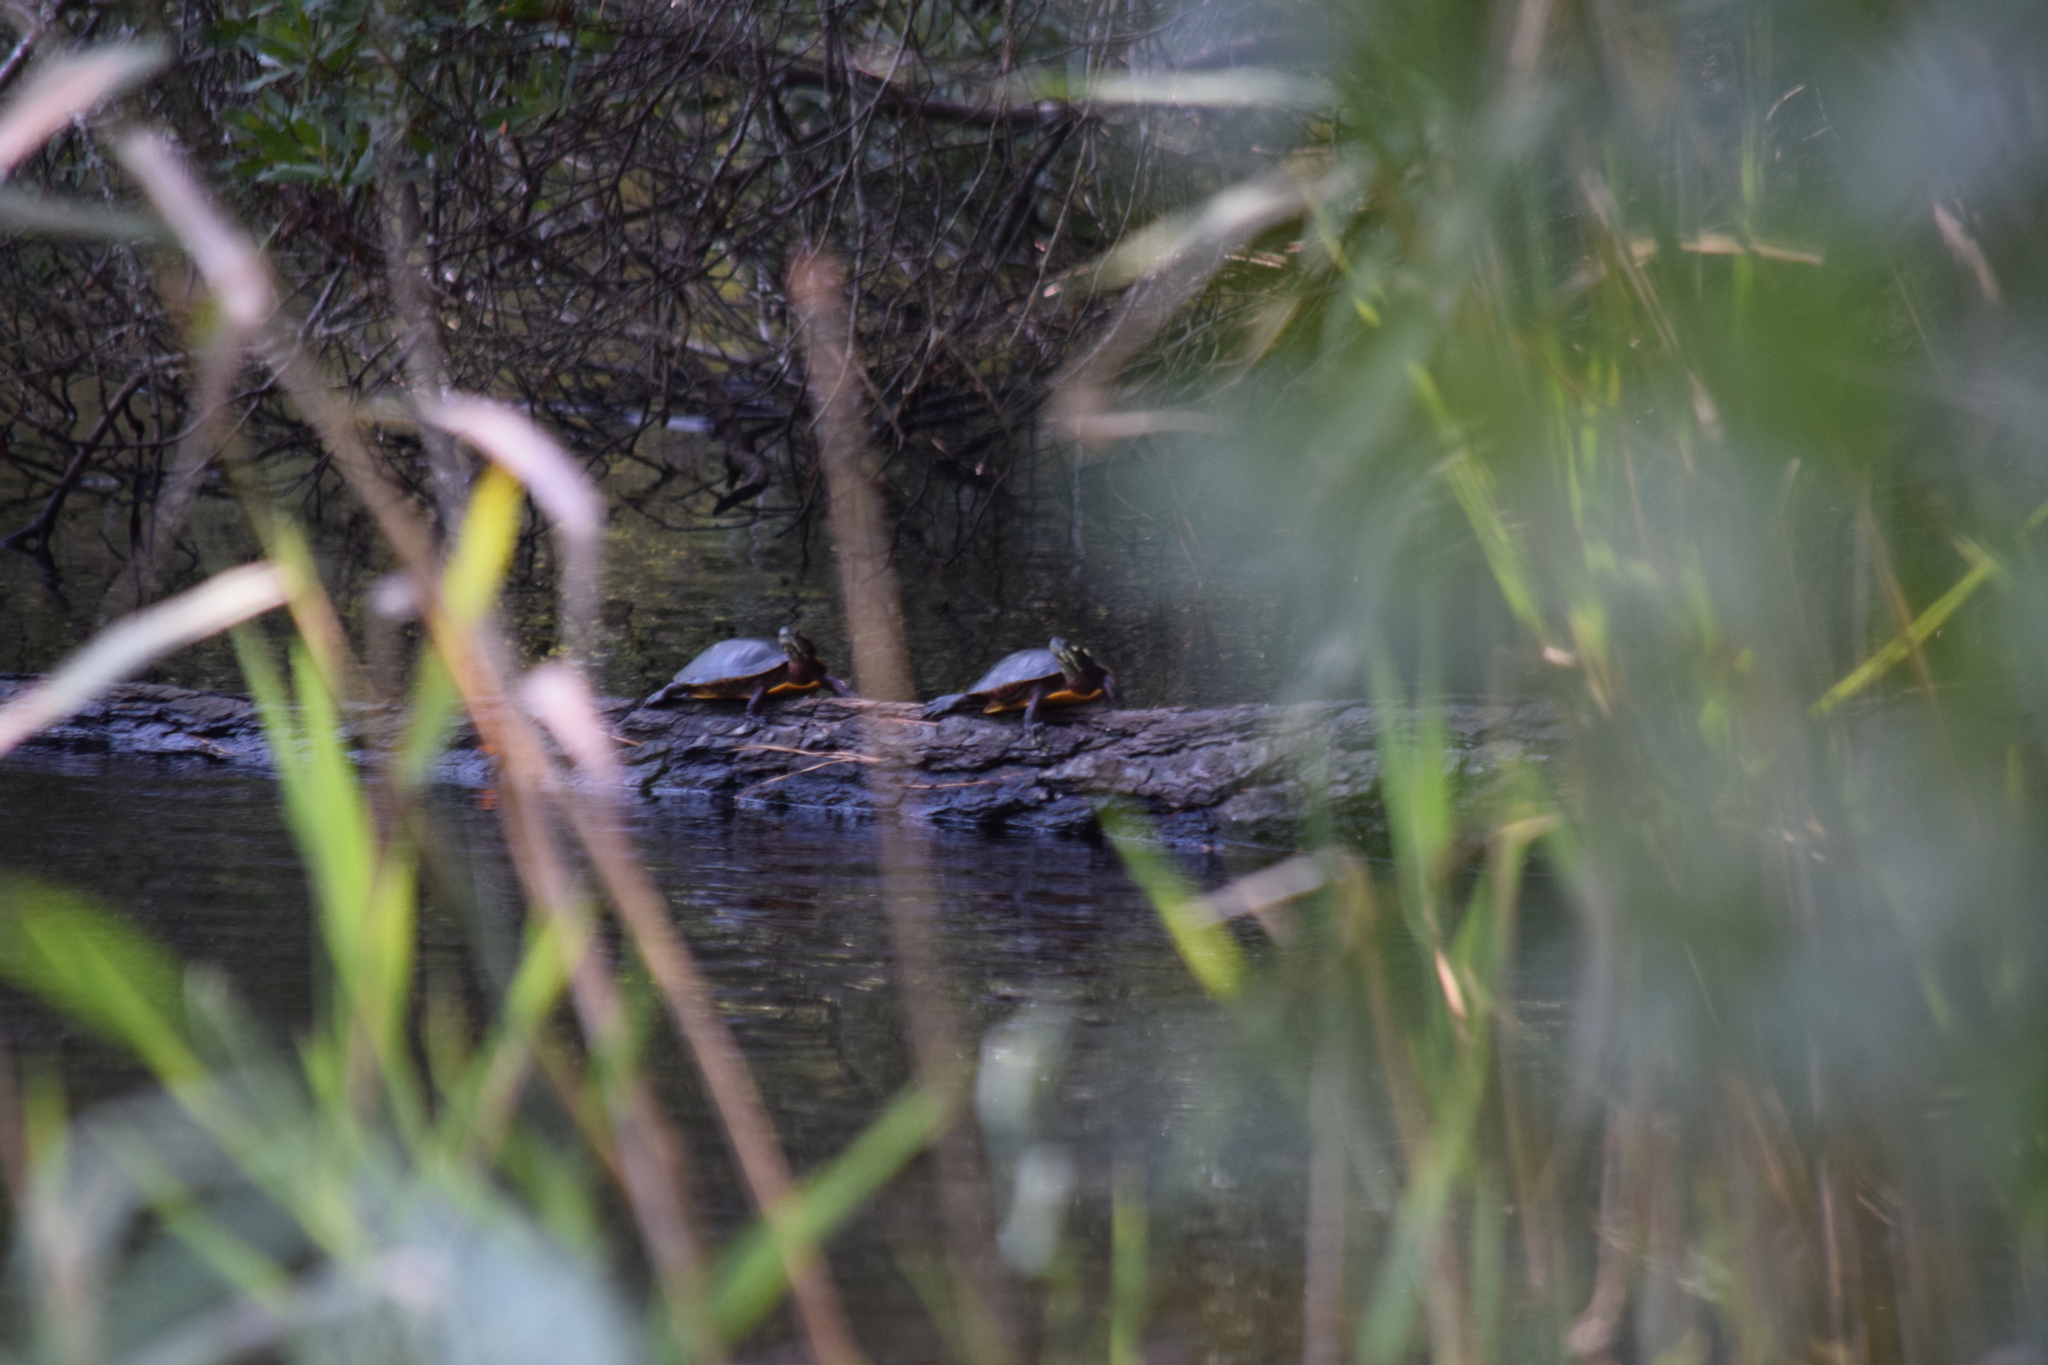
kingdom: Animalia
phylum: Chordata
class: Testudines
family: Emydidae
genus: Chrysemys
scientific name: Chrysemys picta
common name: Painted turtle
